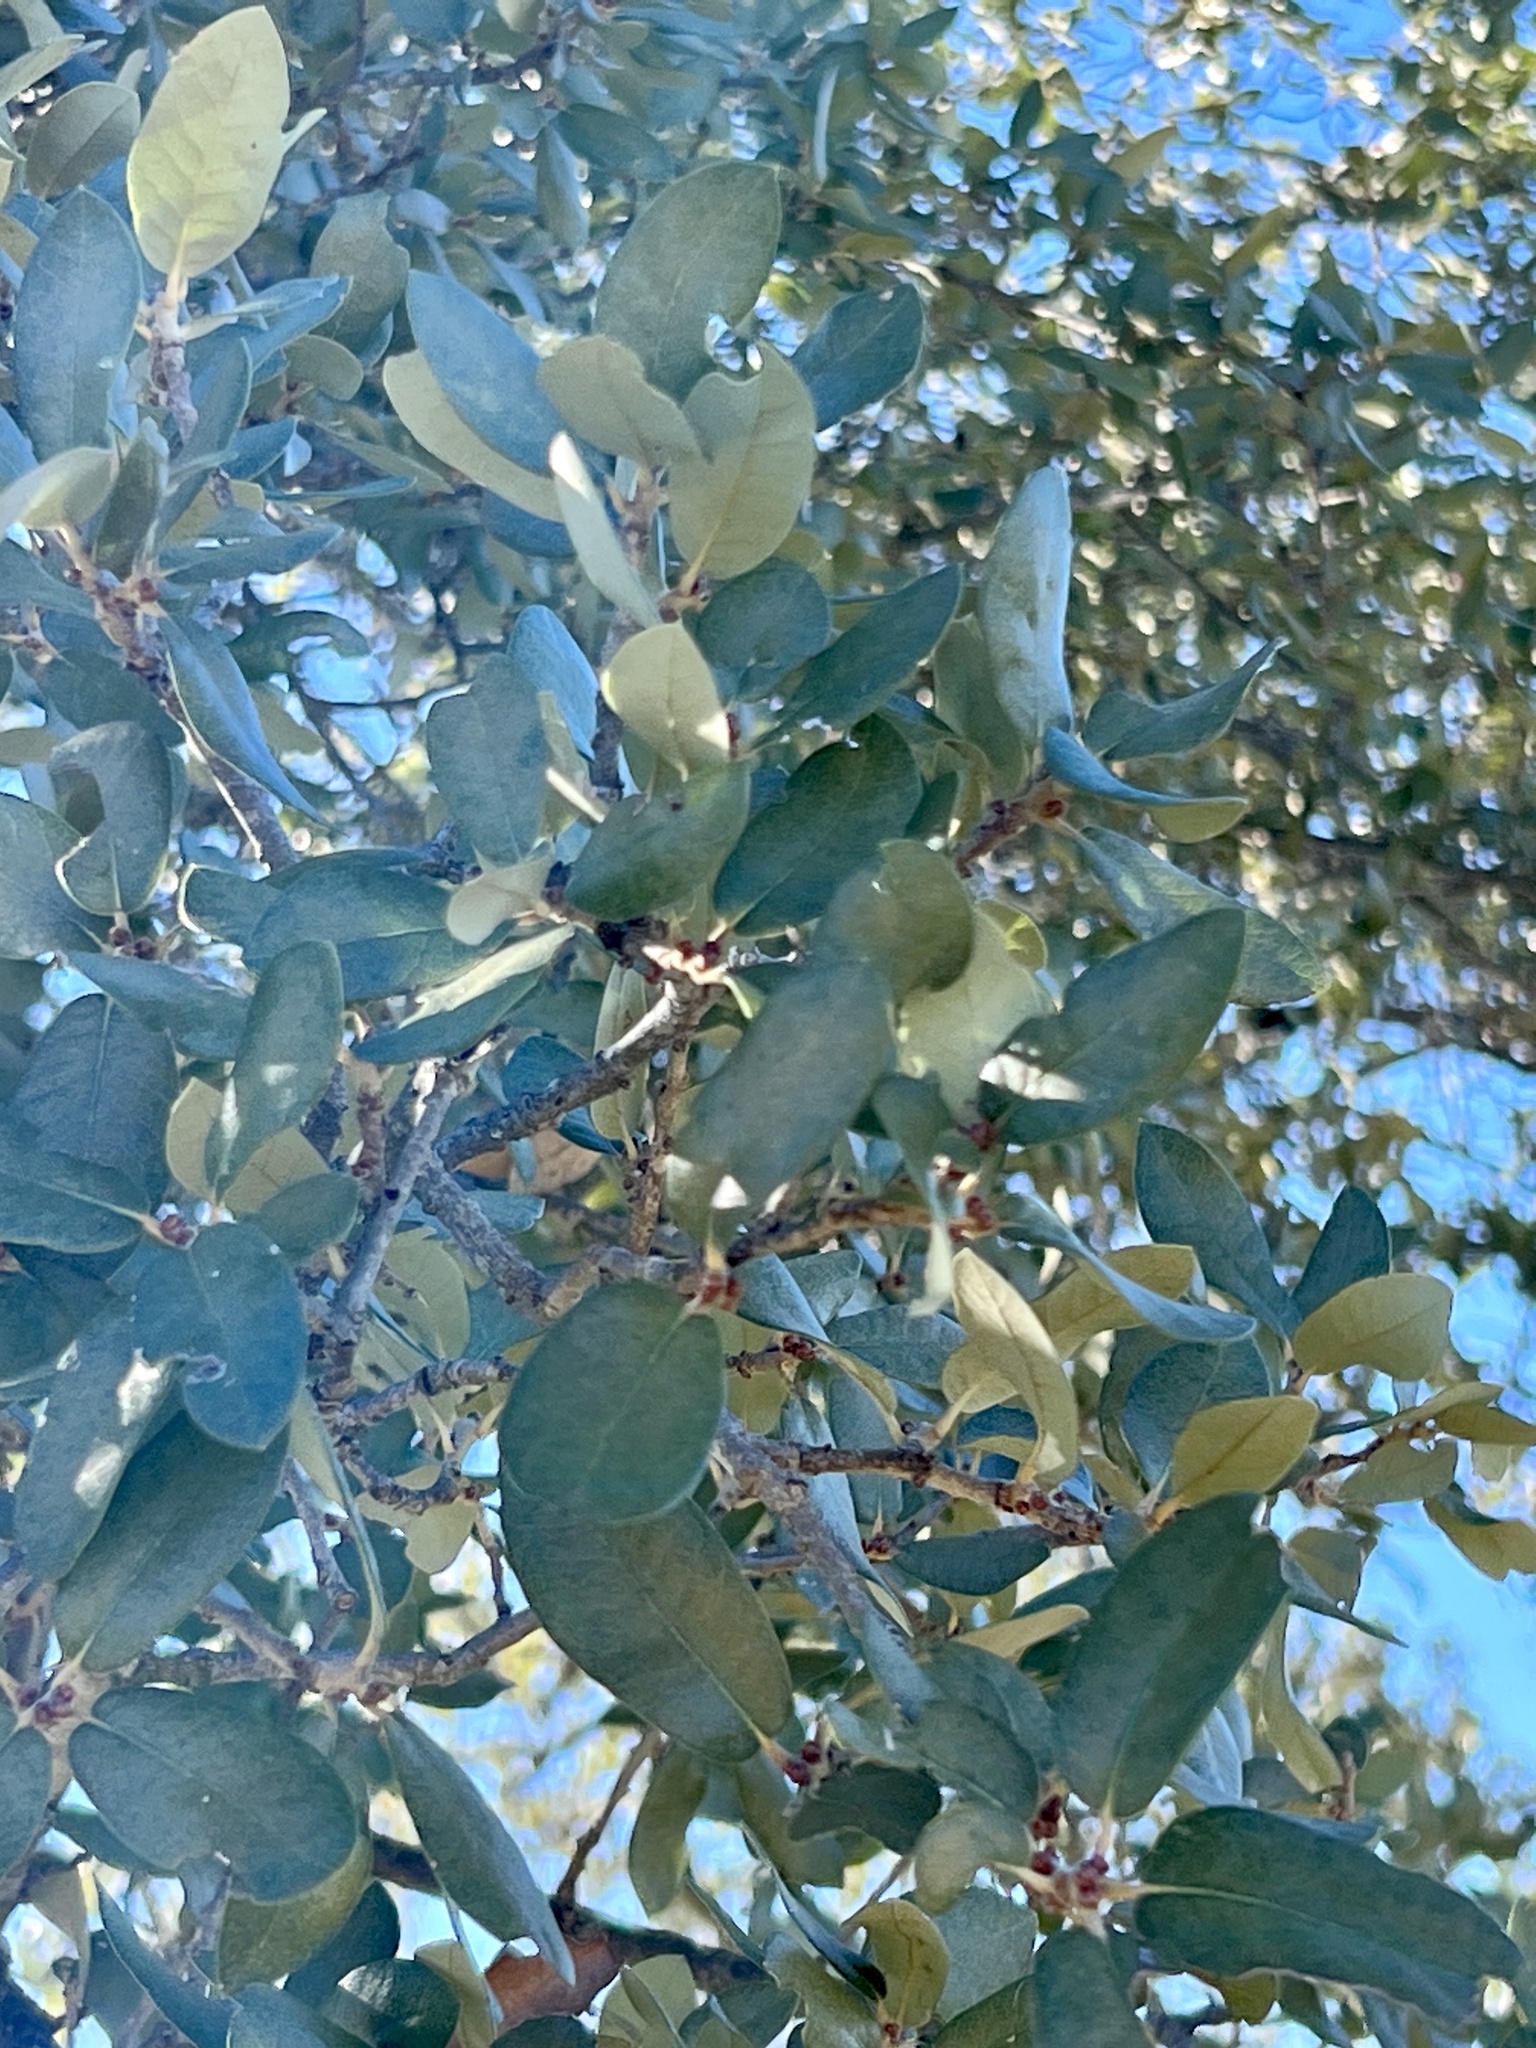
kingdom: Plantae
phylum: Tracheophyta
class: Magnoliopsida
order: Fagales
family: Fagaceae
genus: Quercus
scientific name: Quercus fusiformis
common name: Texas live oak
